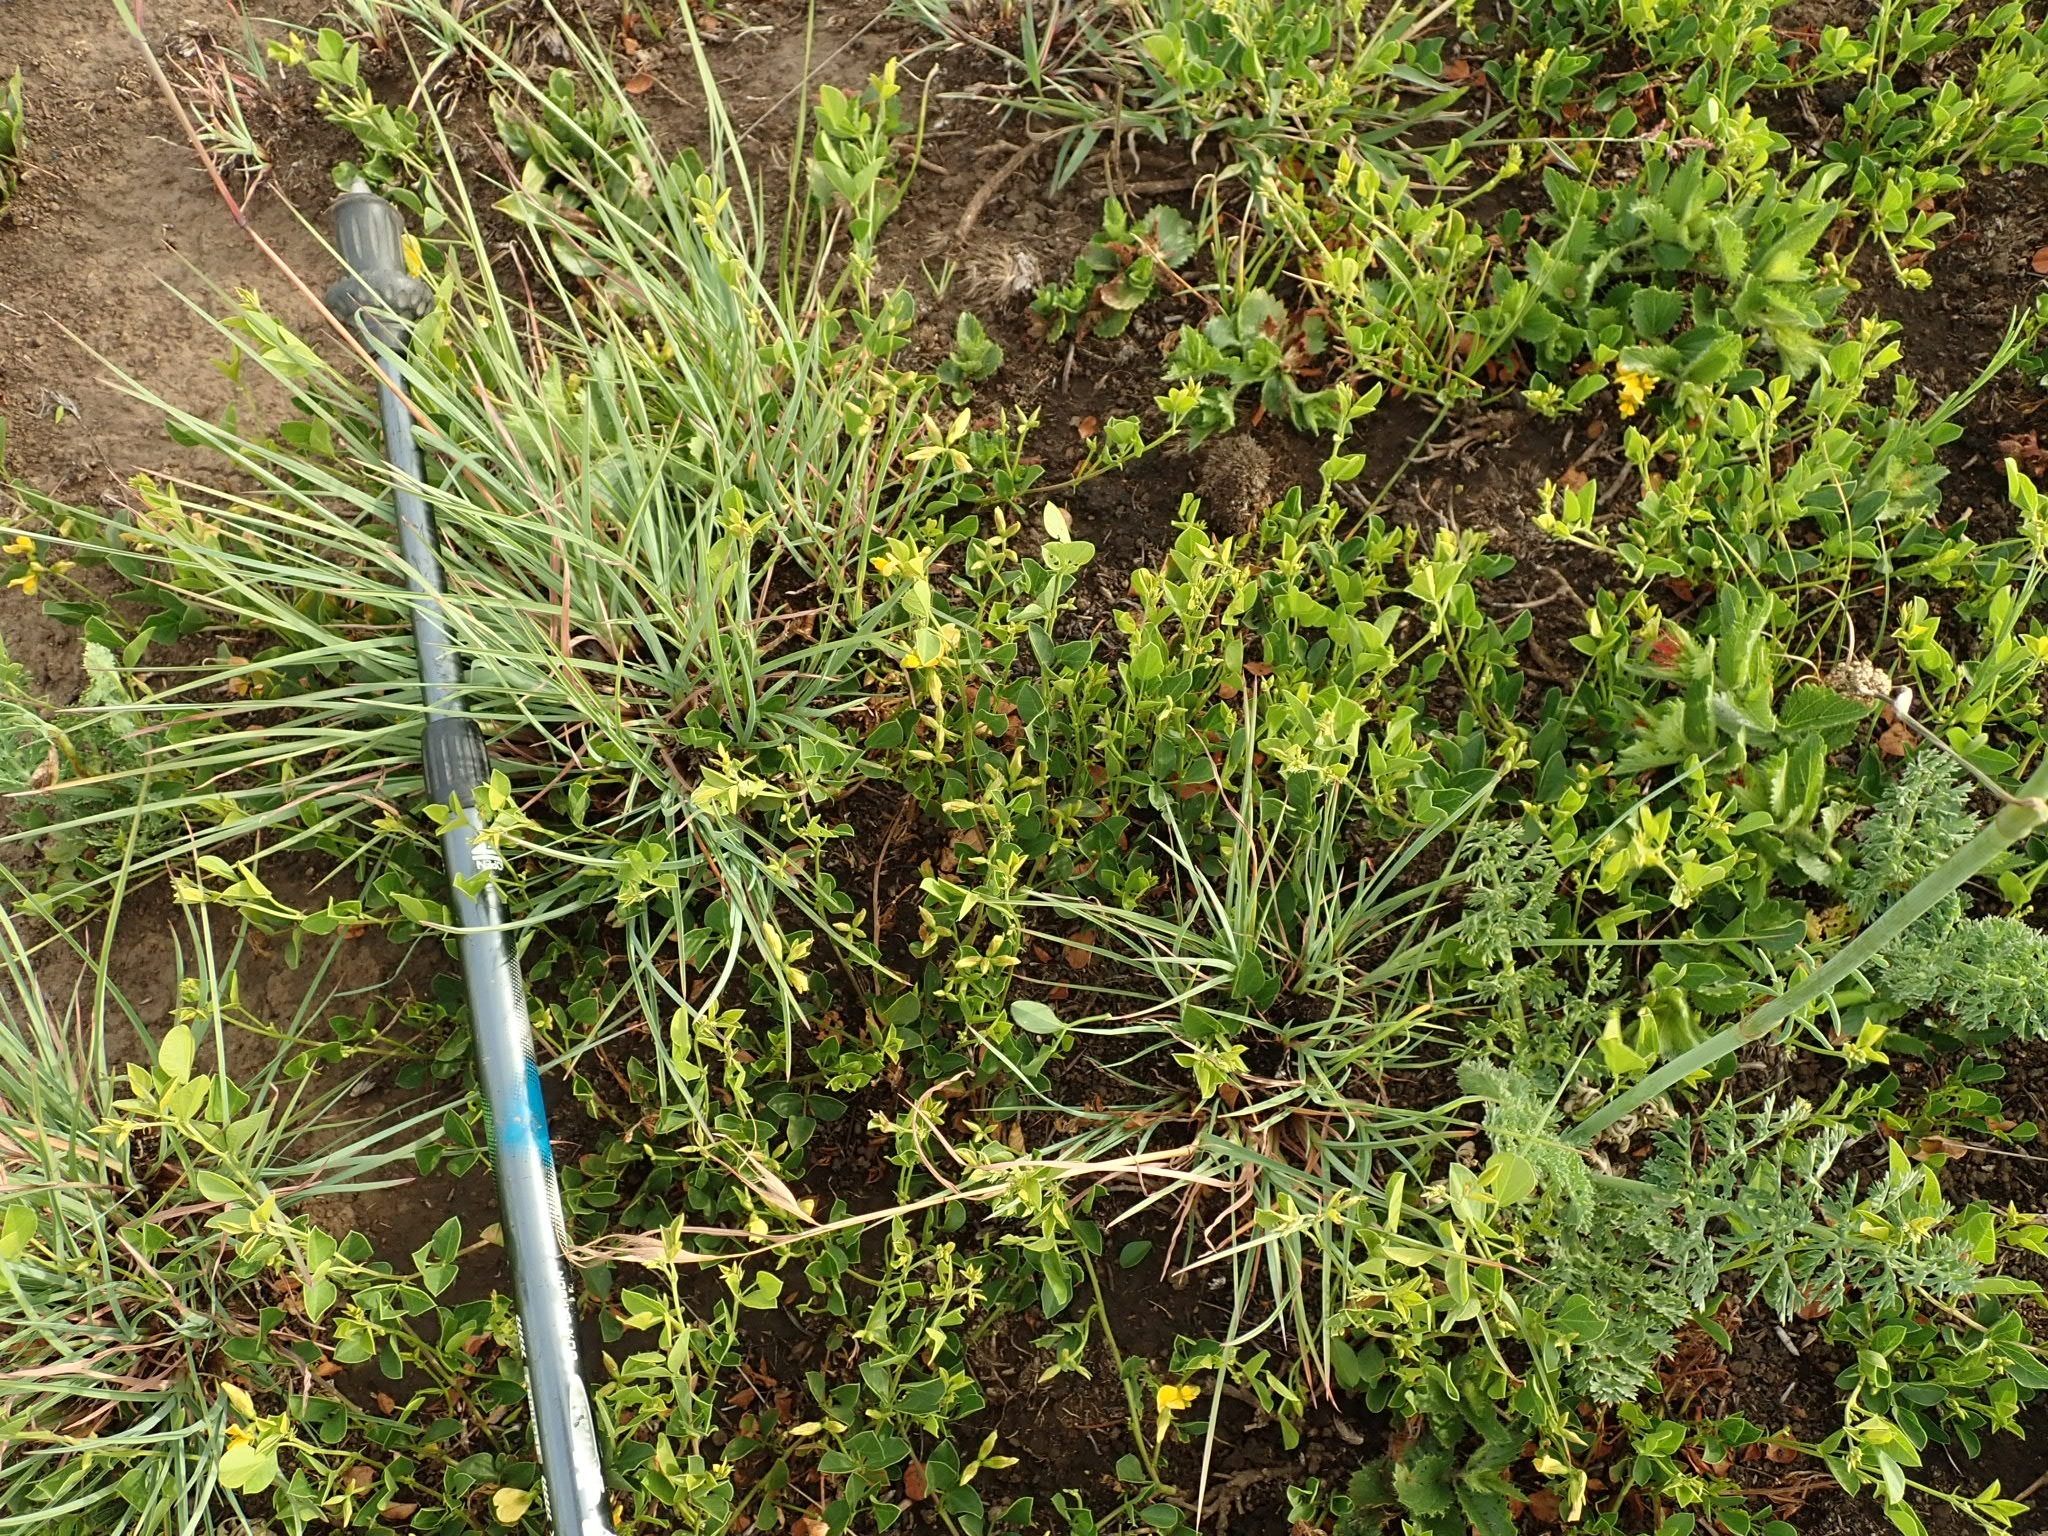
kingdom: Plantae
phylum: Tracheophyta
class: Magnoliopsida
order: Fabales
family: Fabaceae
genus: Rhynchosia
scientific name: Rhynchosia monophylla
